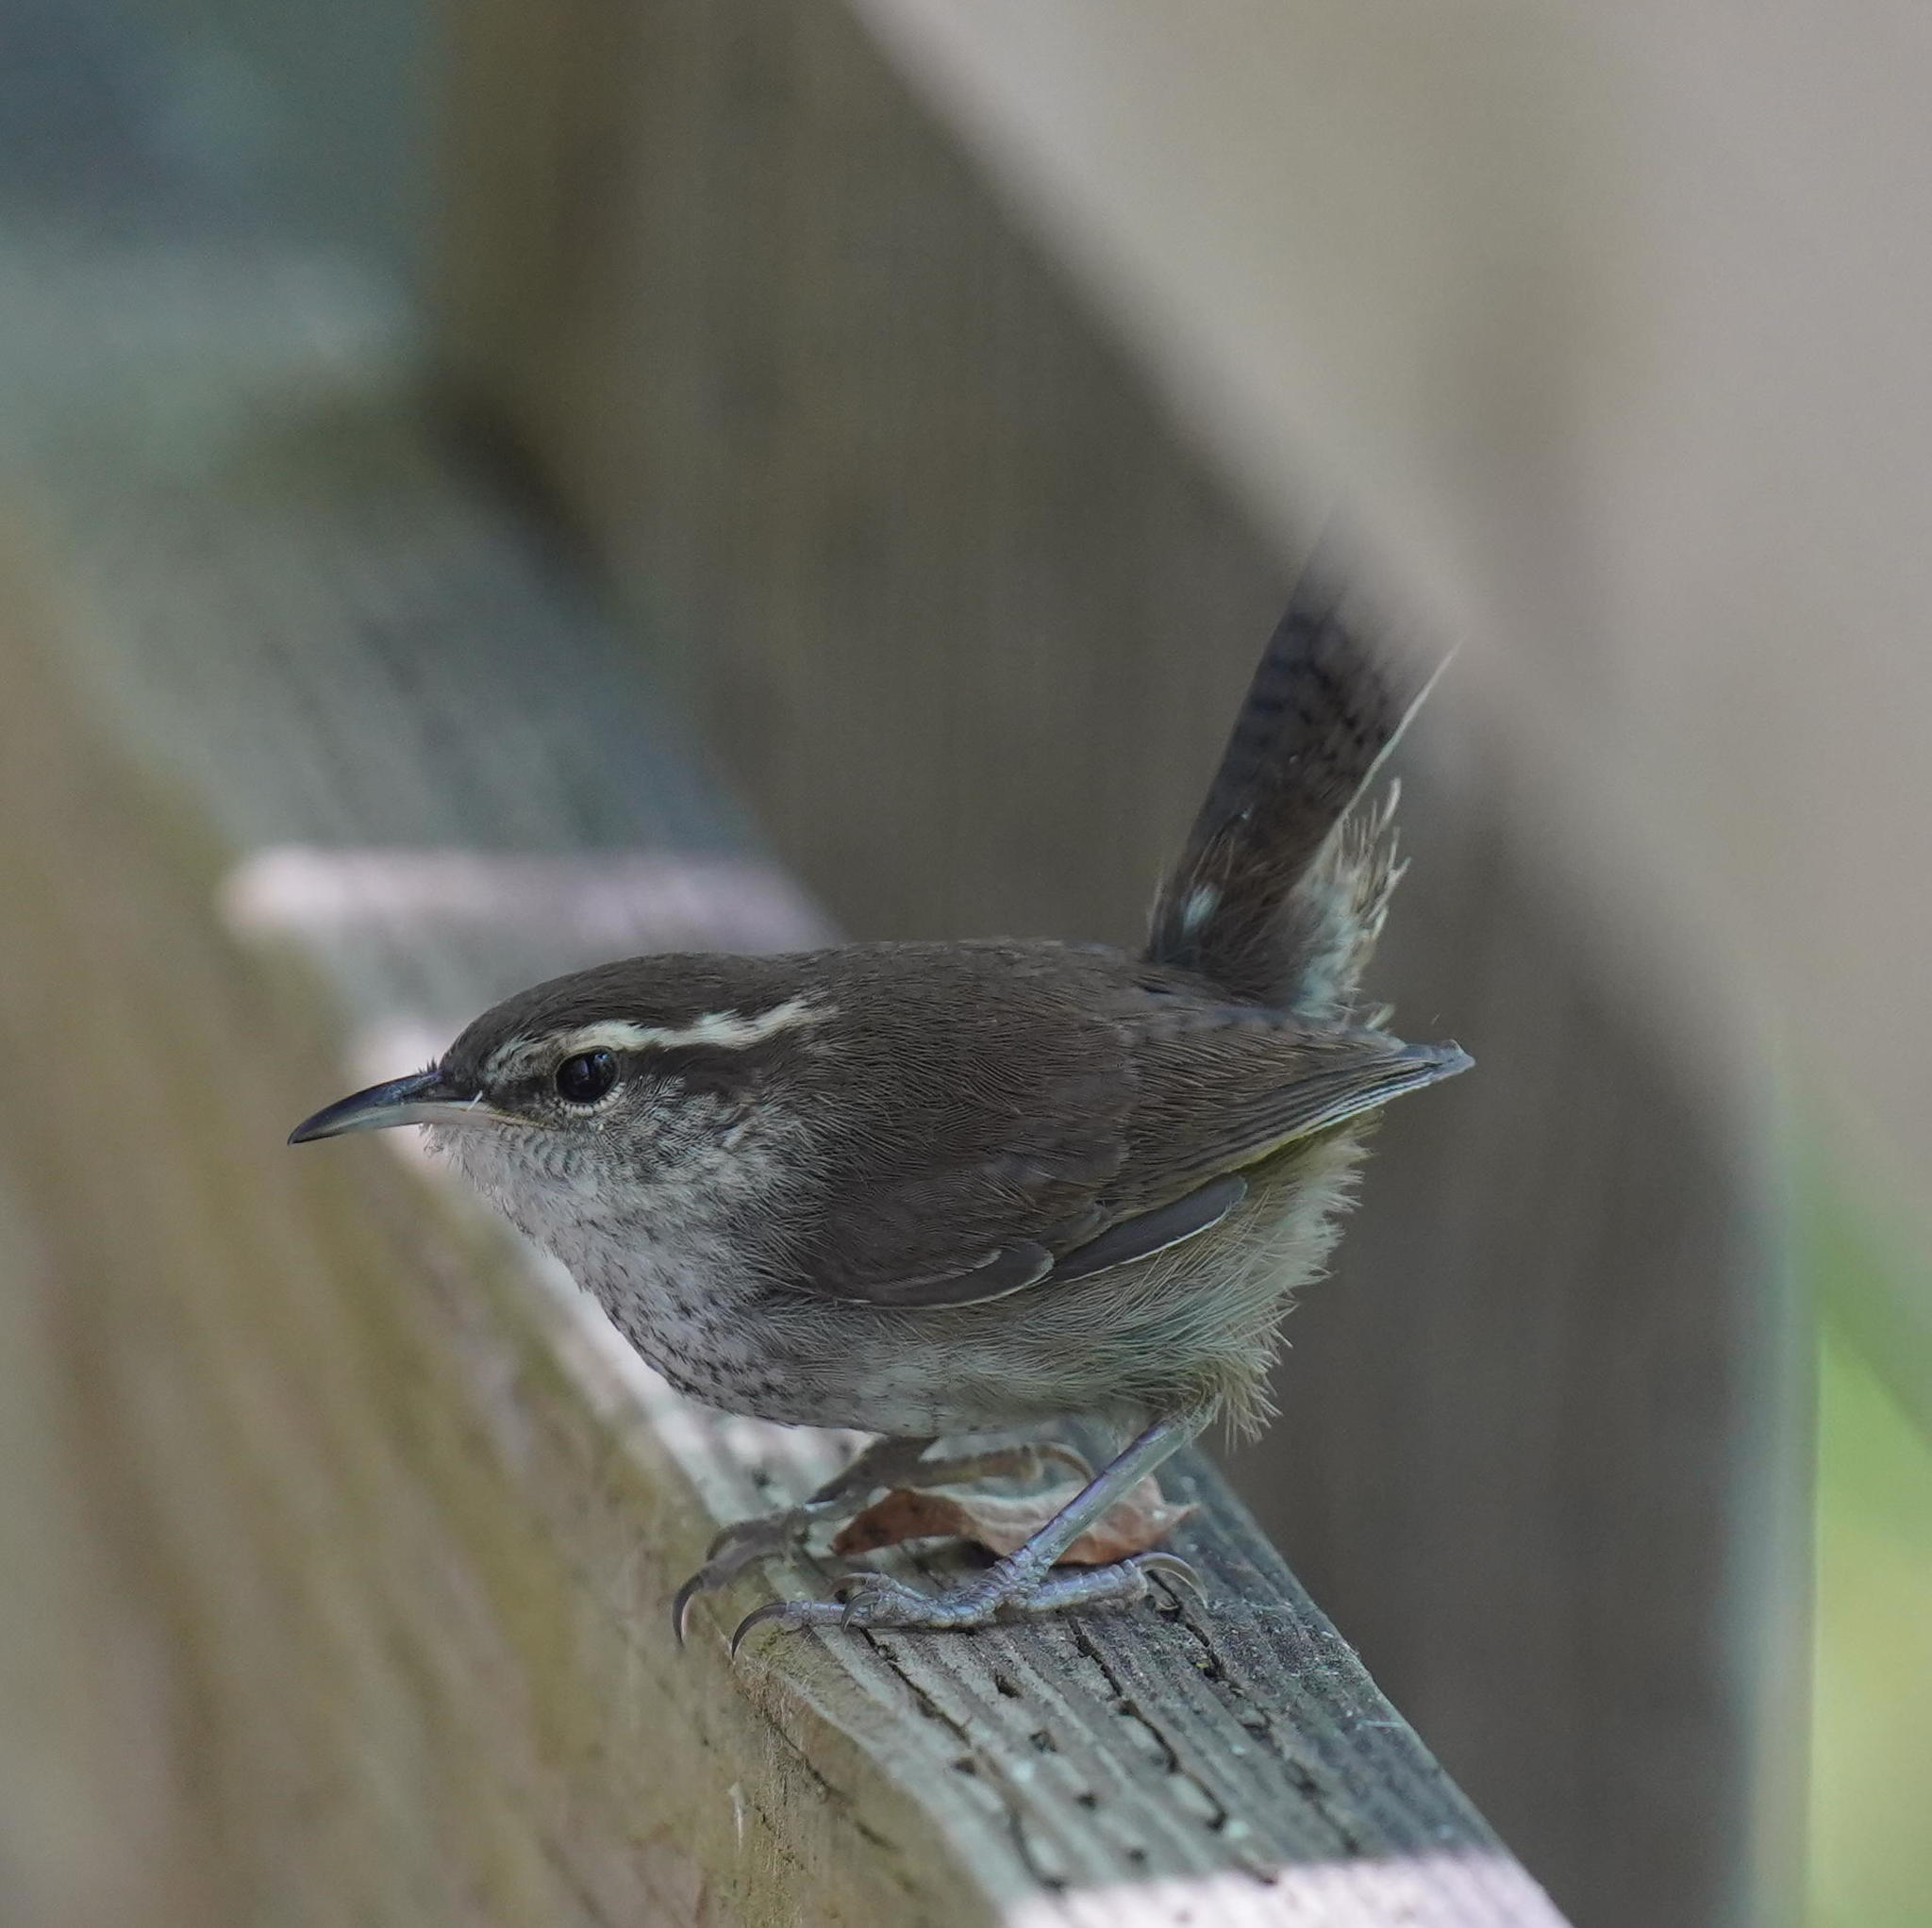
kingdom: Animalia
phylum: Chordata
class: Aves
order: Passeriformes
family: Troglodytidae
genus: Thryomanes
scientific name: Thryomanes bewickii
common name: Bewick's wren
